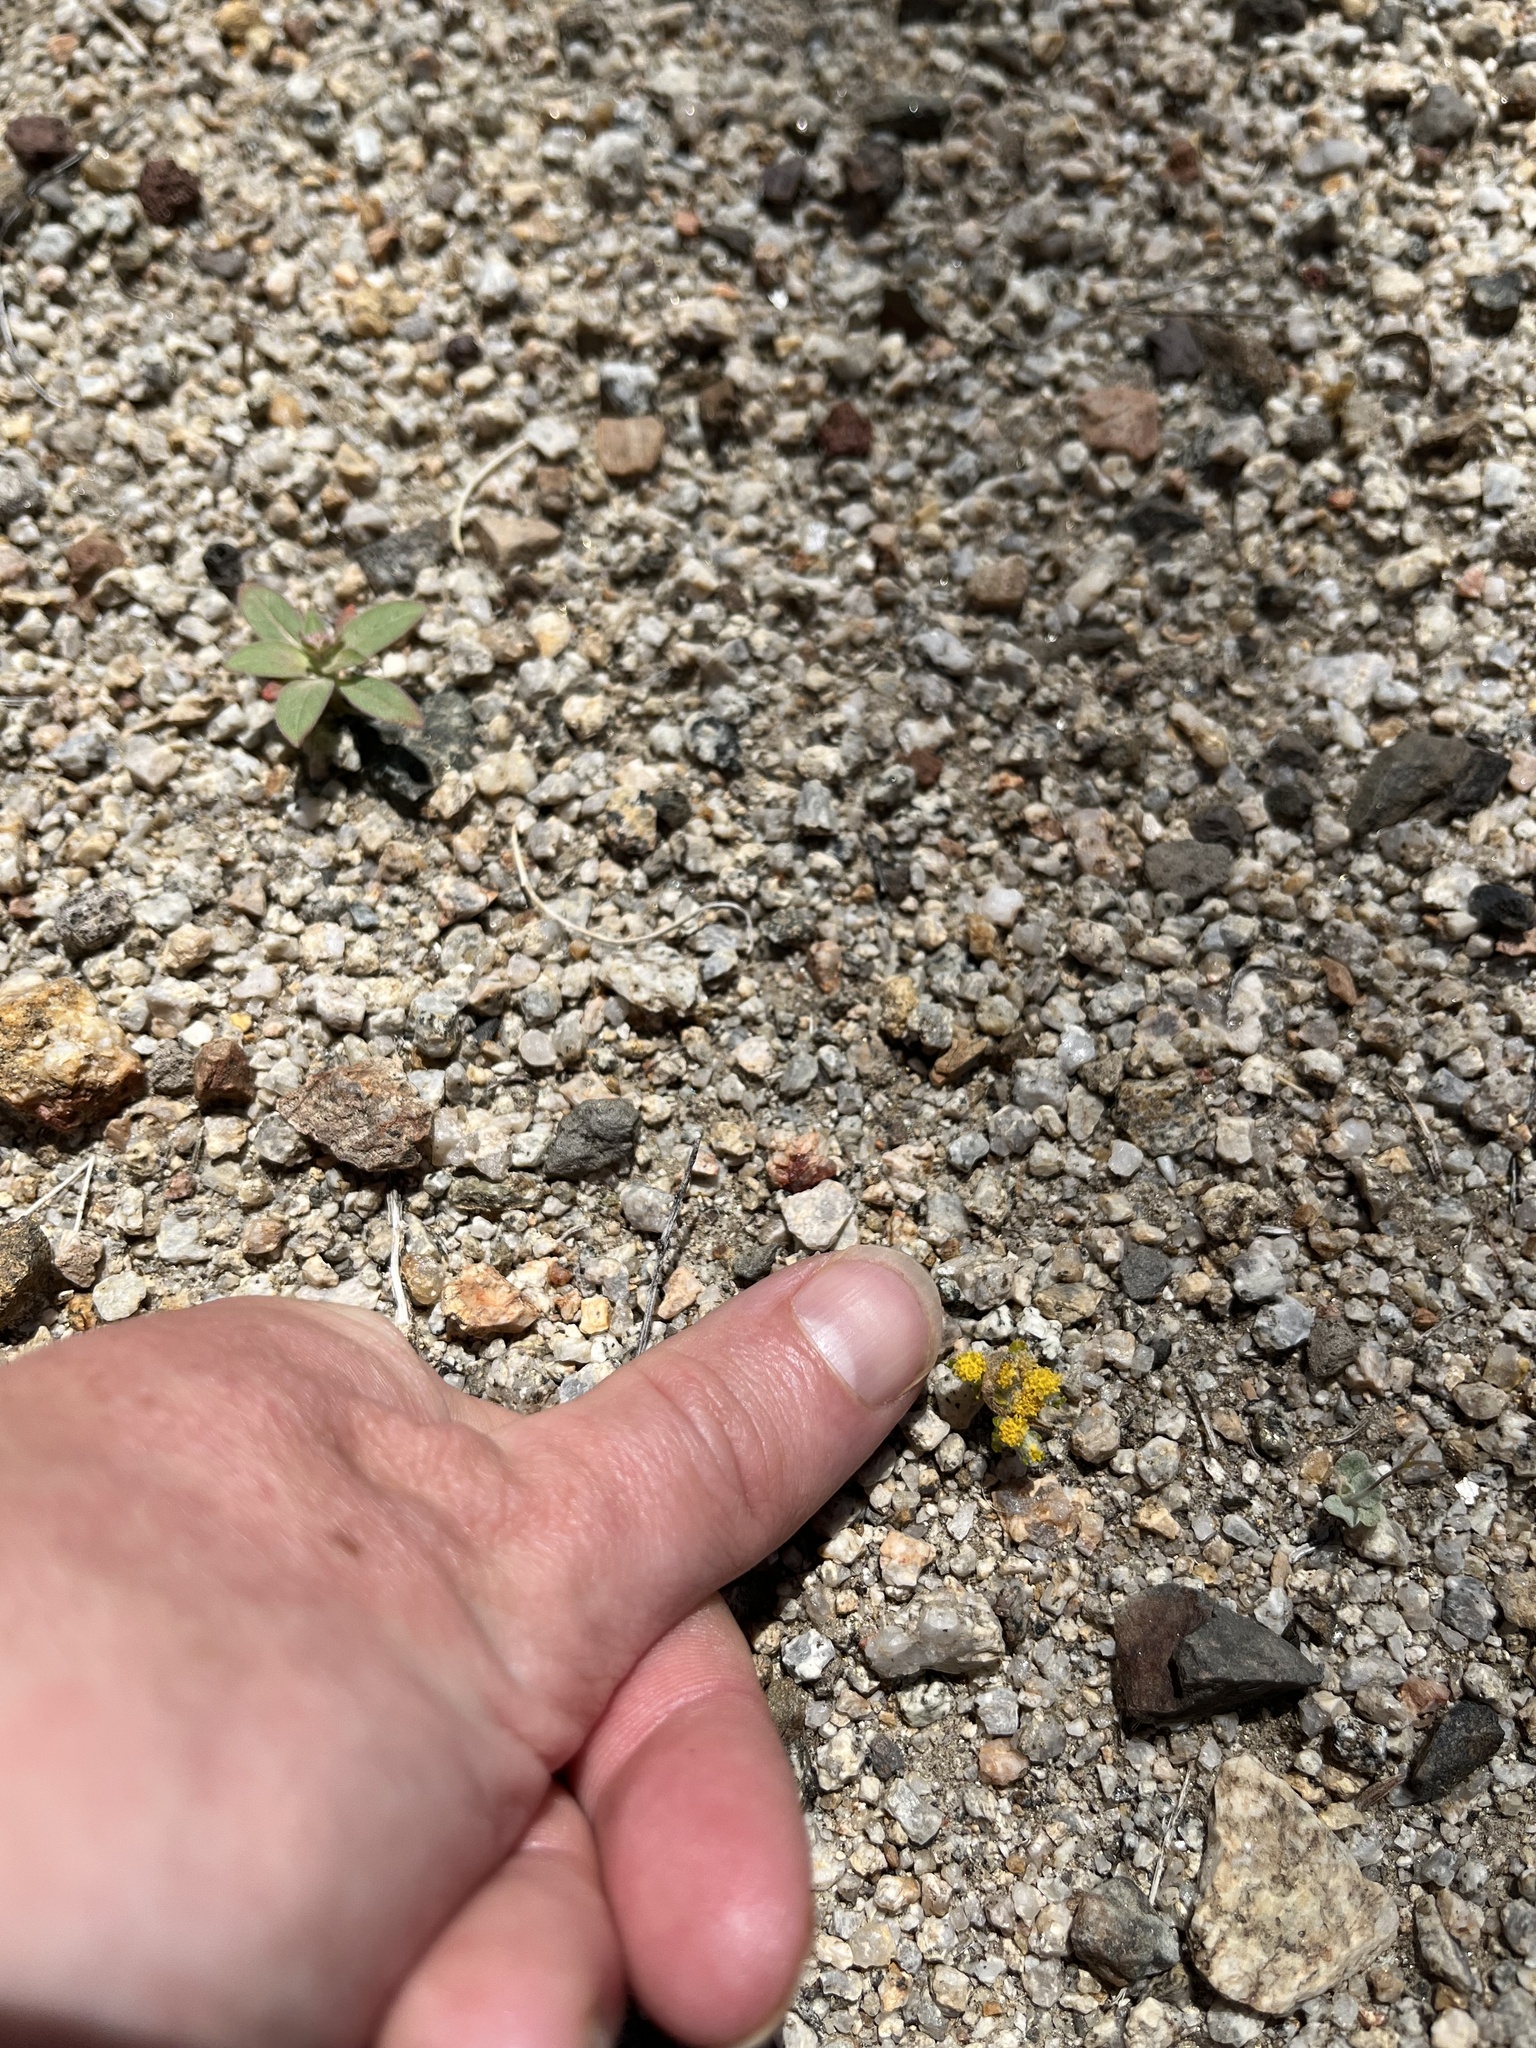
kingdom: Plantae
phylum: Tracheophyta
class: Magnoliopsida
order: Asterales
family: Asteraceae
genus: Eriophyllum
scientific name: Eriophyllum pringlei
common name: Pringle's woolly-sunflower
